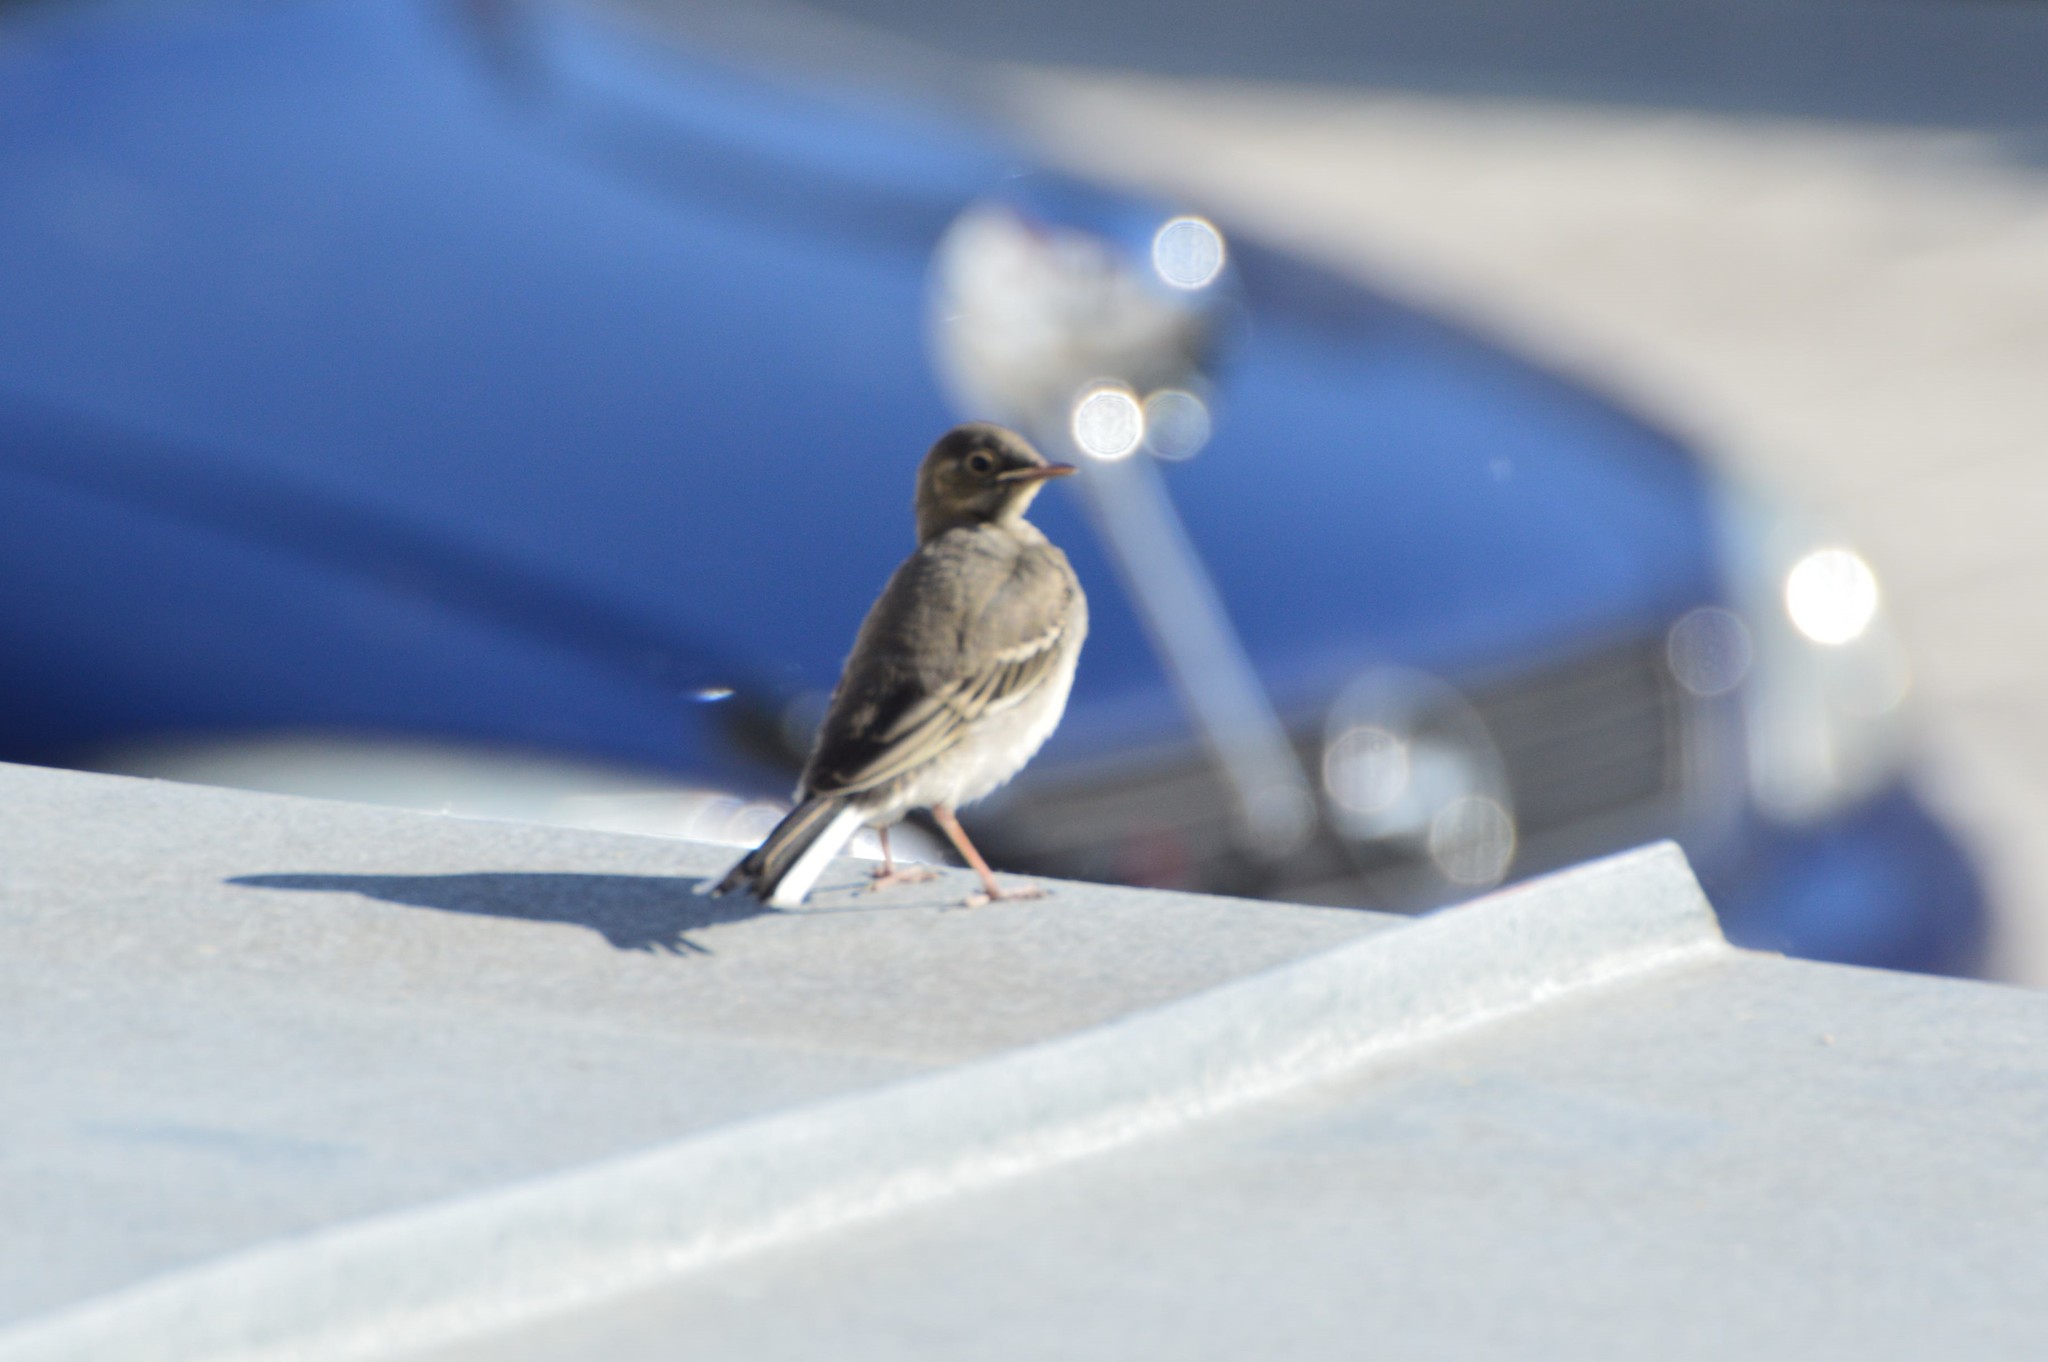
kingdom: Animalia
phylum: Chordata
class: Aves
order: Passeriformes
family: Motacillidae
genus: Motacilla
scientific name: Motacilla alba
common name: White wagtail
